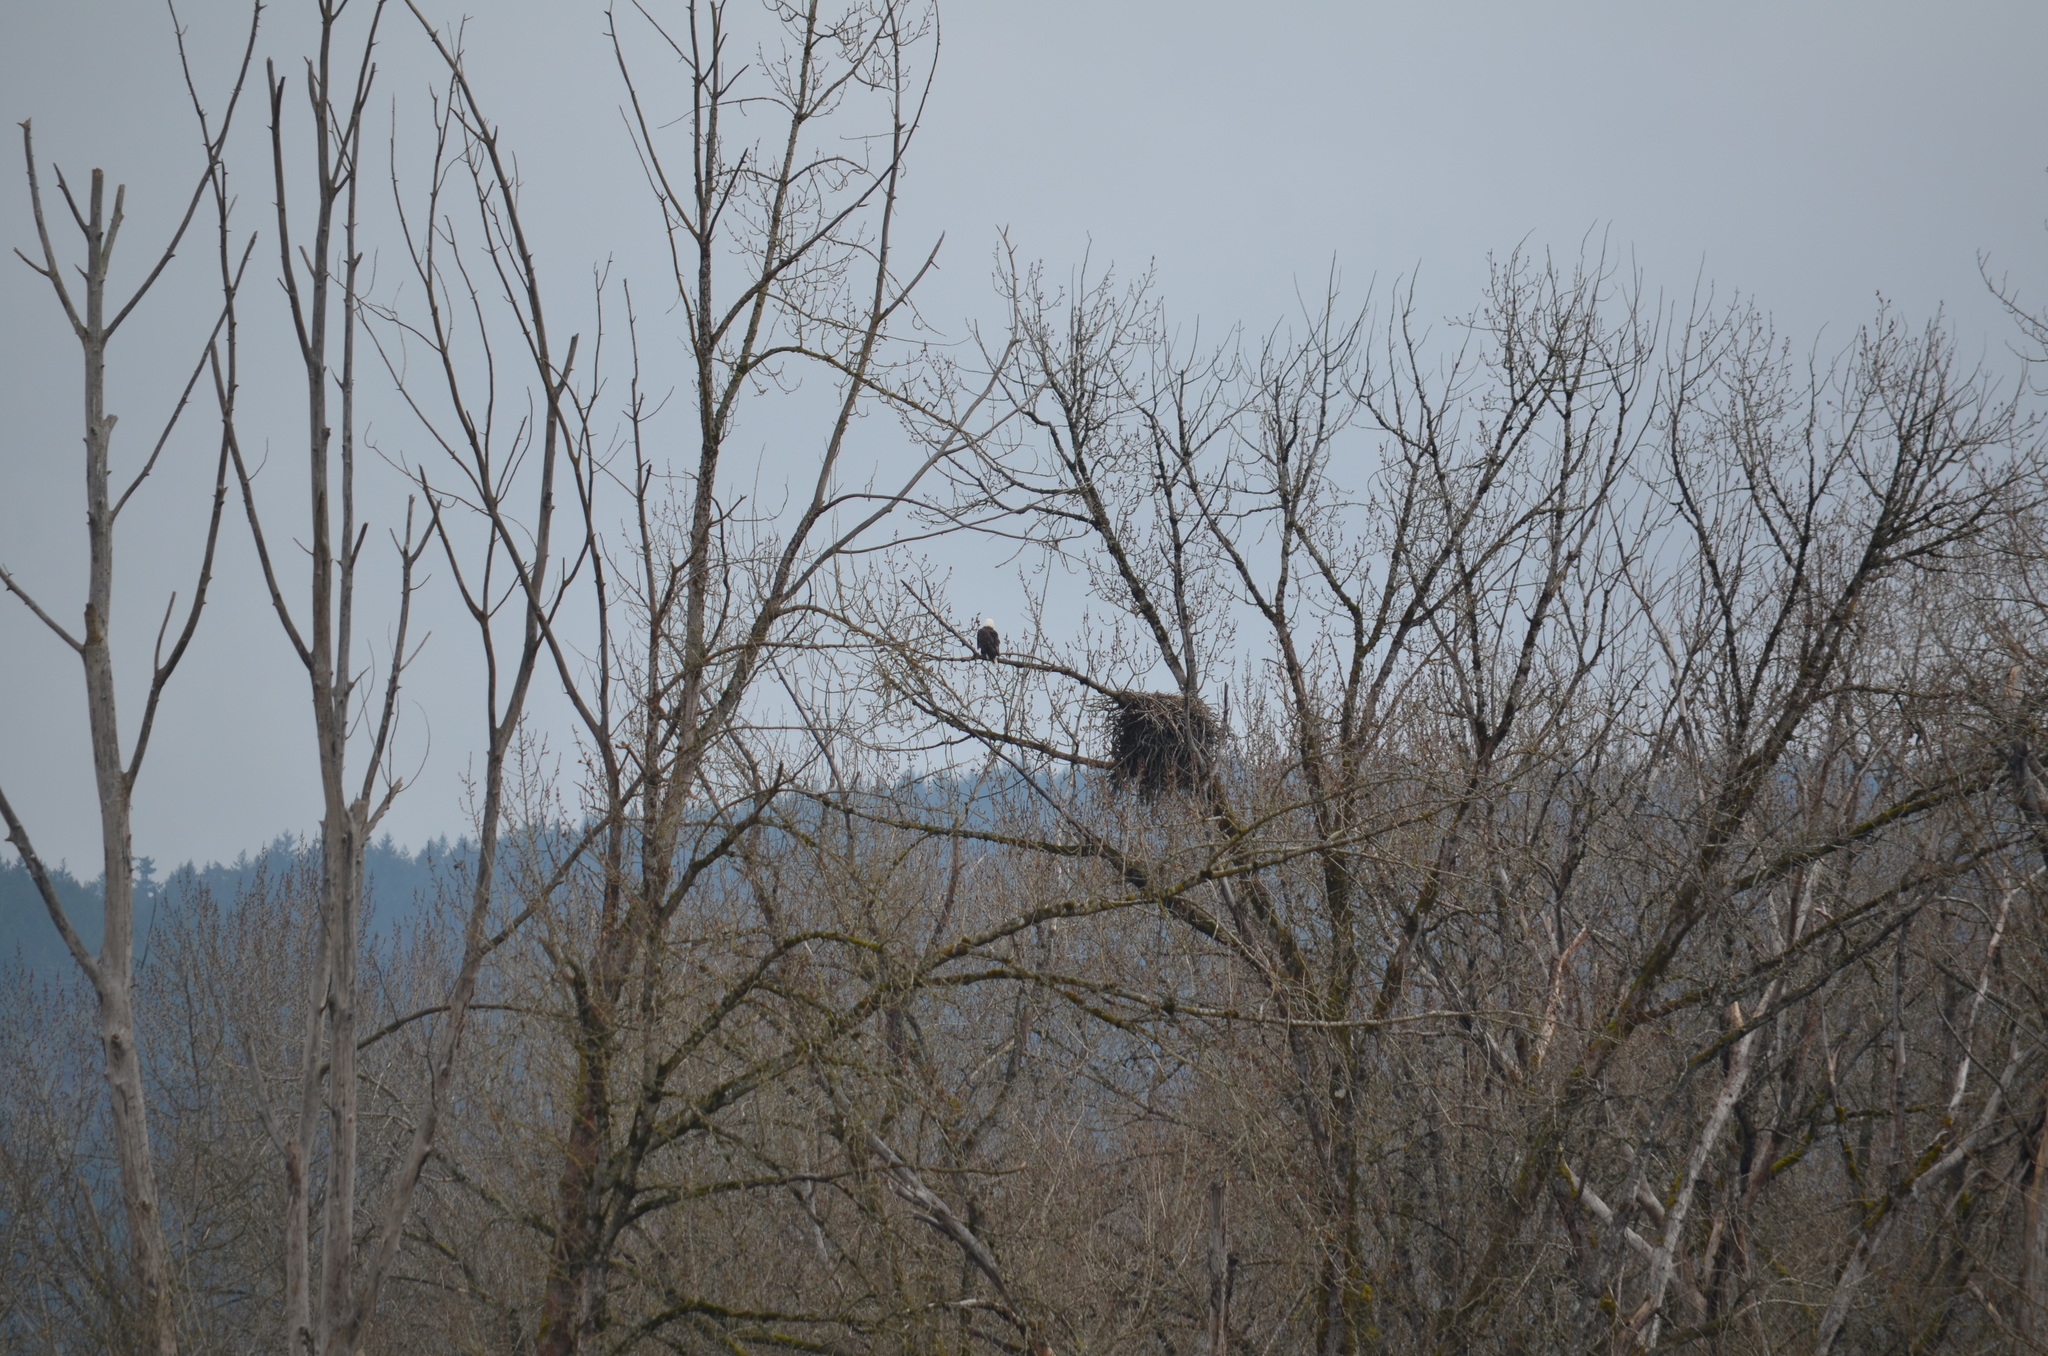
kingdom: Animalia
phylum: Chordata
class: Aves
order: Accipitriformes
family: Accipitridae
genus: Haliaeetus
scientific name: Haliaeetus leucocephalus
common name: Bald eagle
